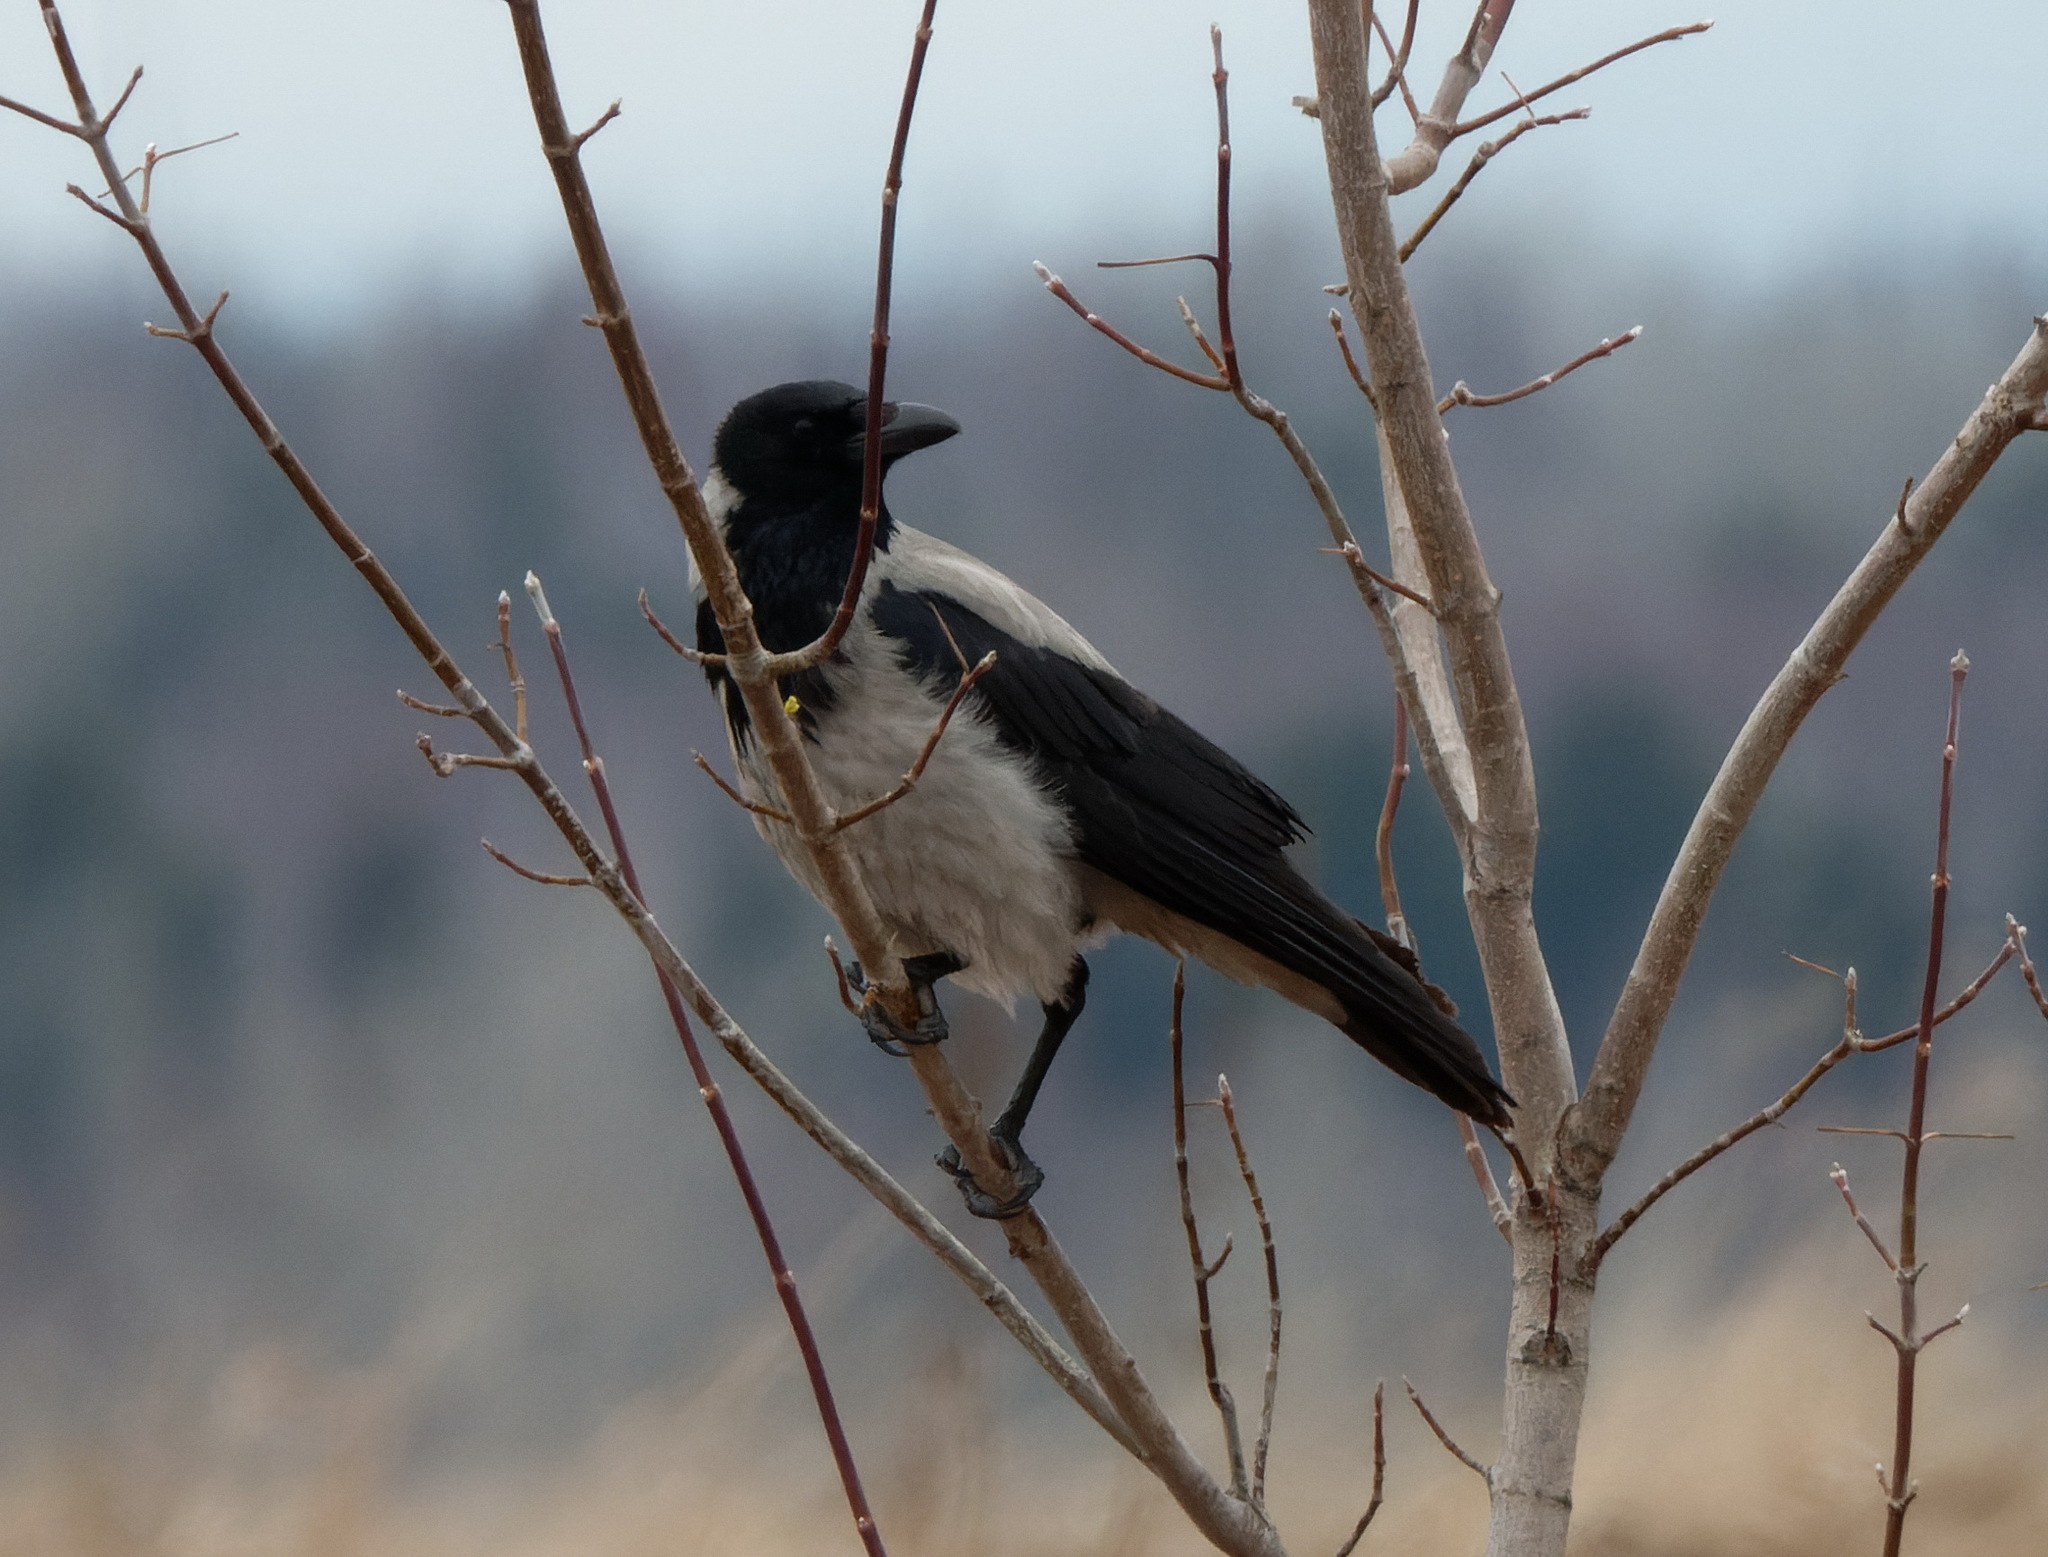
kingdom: Animalia
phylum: Chordata
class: Aves
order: Passeriformes
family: Corvidae
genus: Corvus
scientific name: Corvus cornix
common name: Hooded crow
